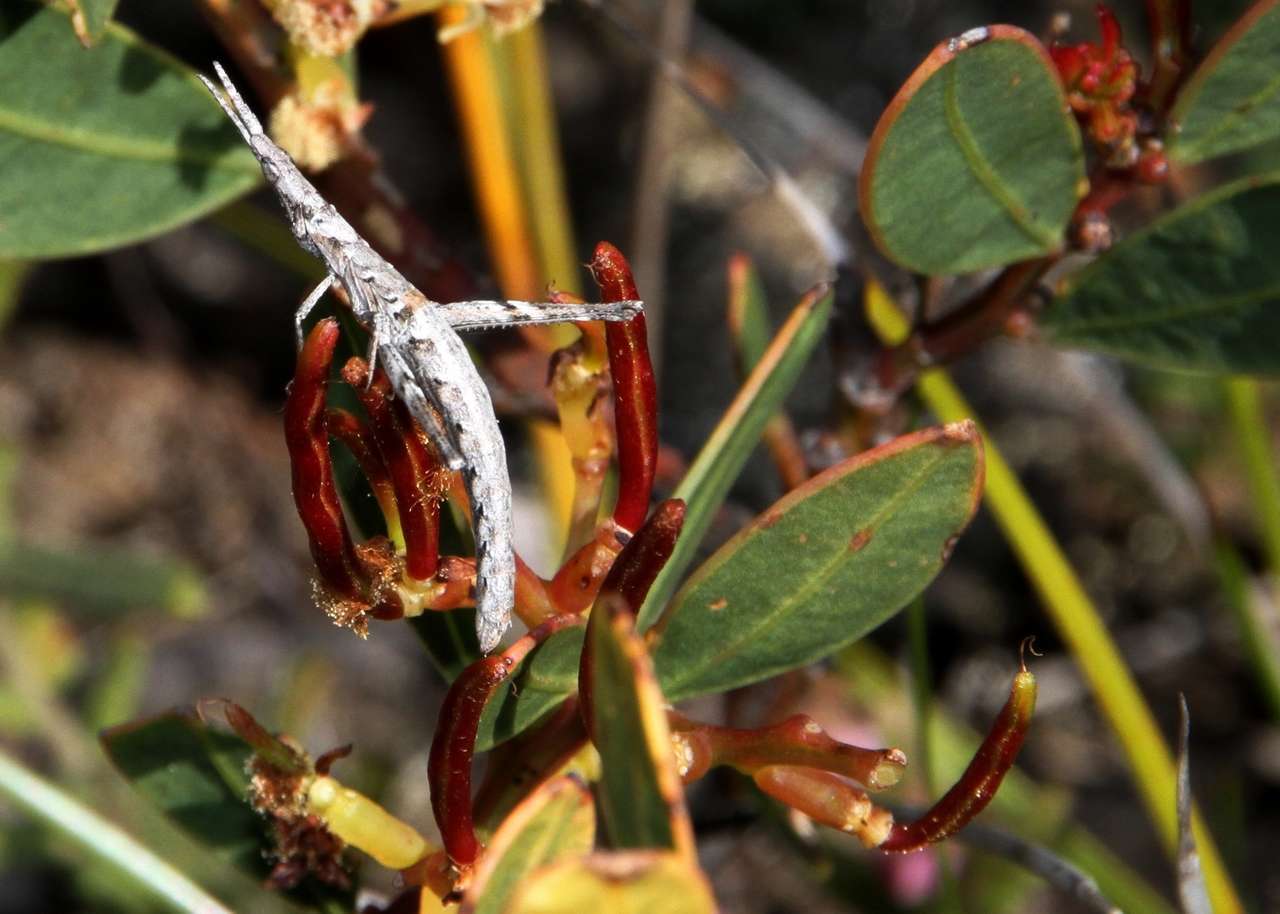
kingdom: Plantae
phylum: Tracheophyta
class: Magnoliopsida
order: Fabales
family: Fabaceae
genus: Acacia
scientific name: Acacia myrtifolia
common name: Myrtle wattle
